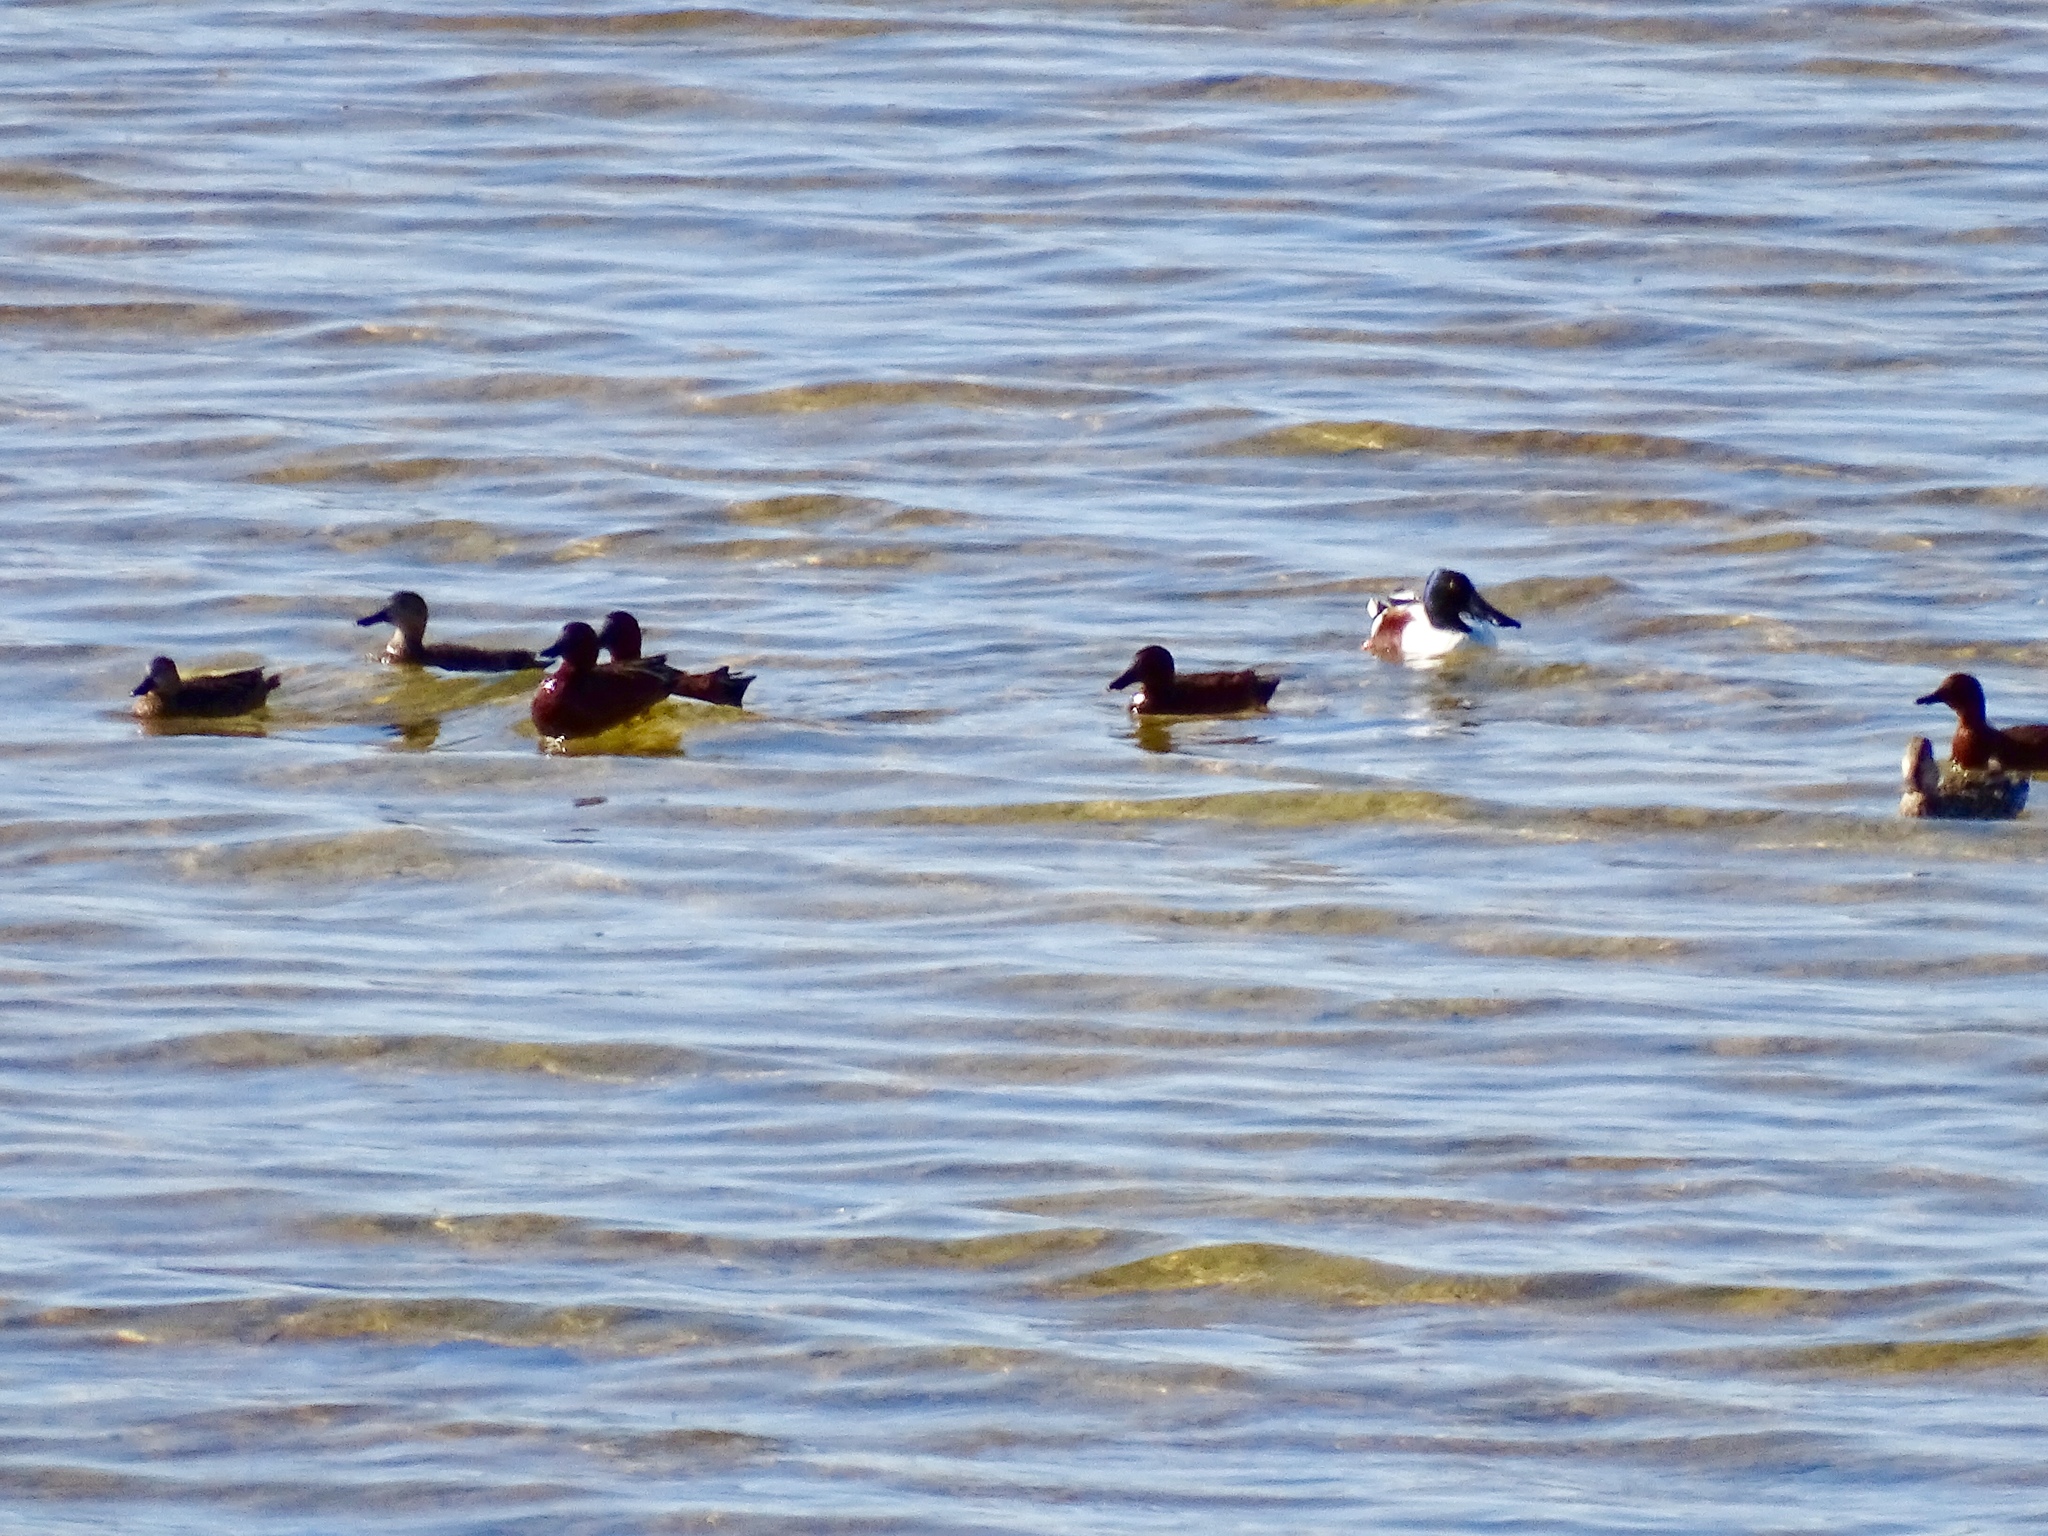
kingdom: Animalia
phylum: Chordata
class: Aves
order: Anseriformes
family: Anatidae
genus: Spatula
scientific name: Spatula cyanoptera
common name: Cinnamon teal
